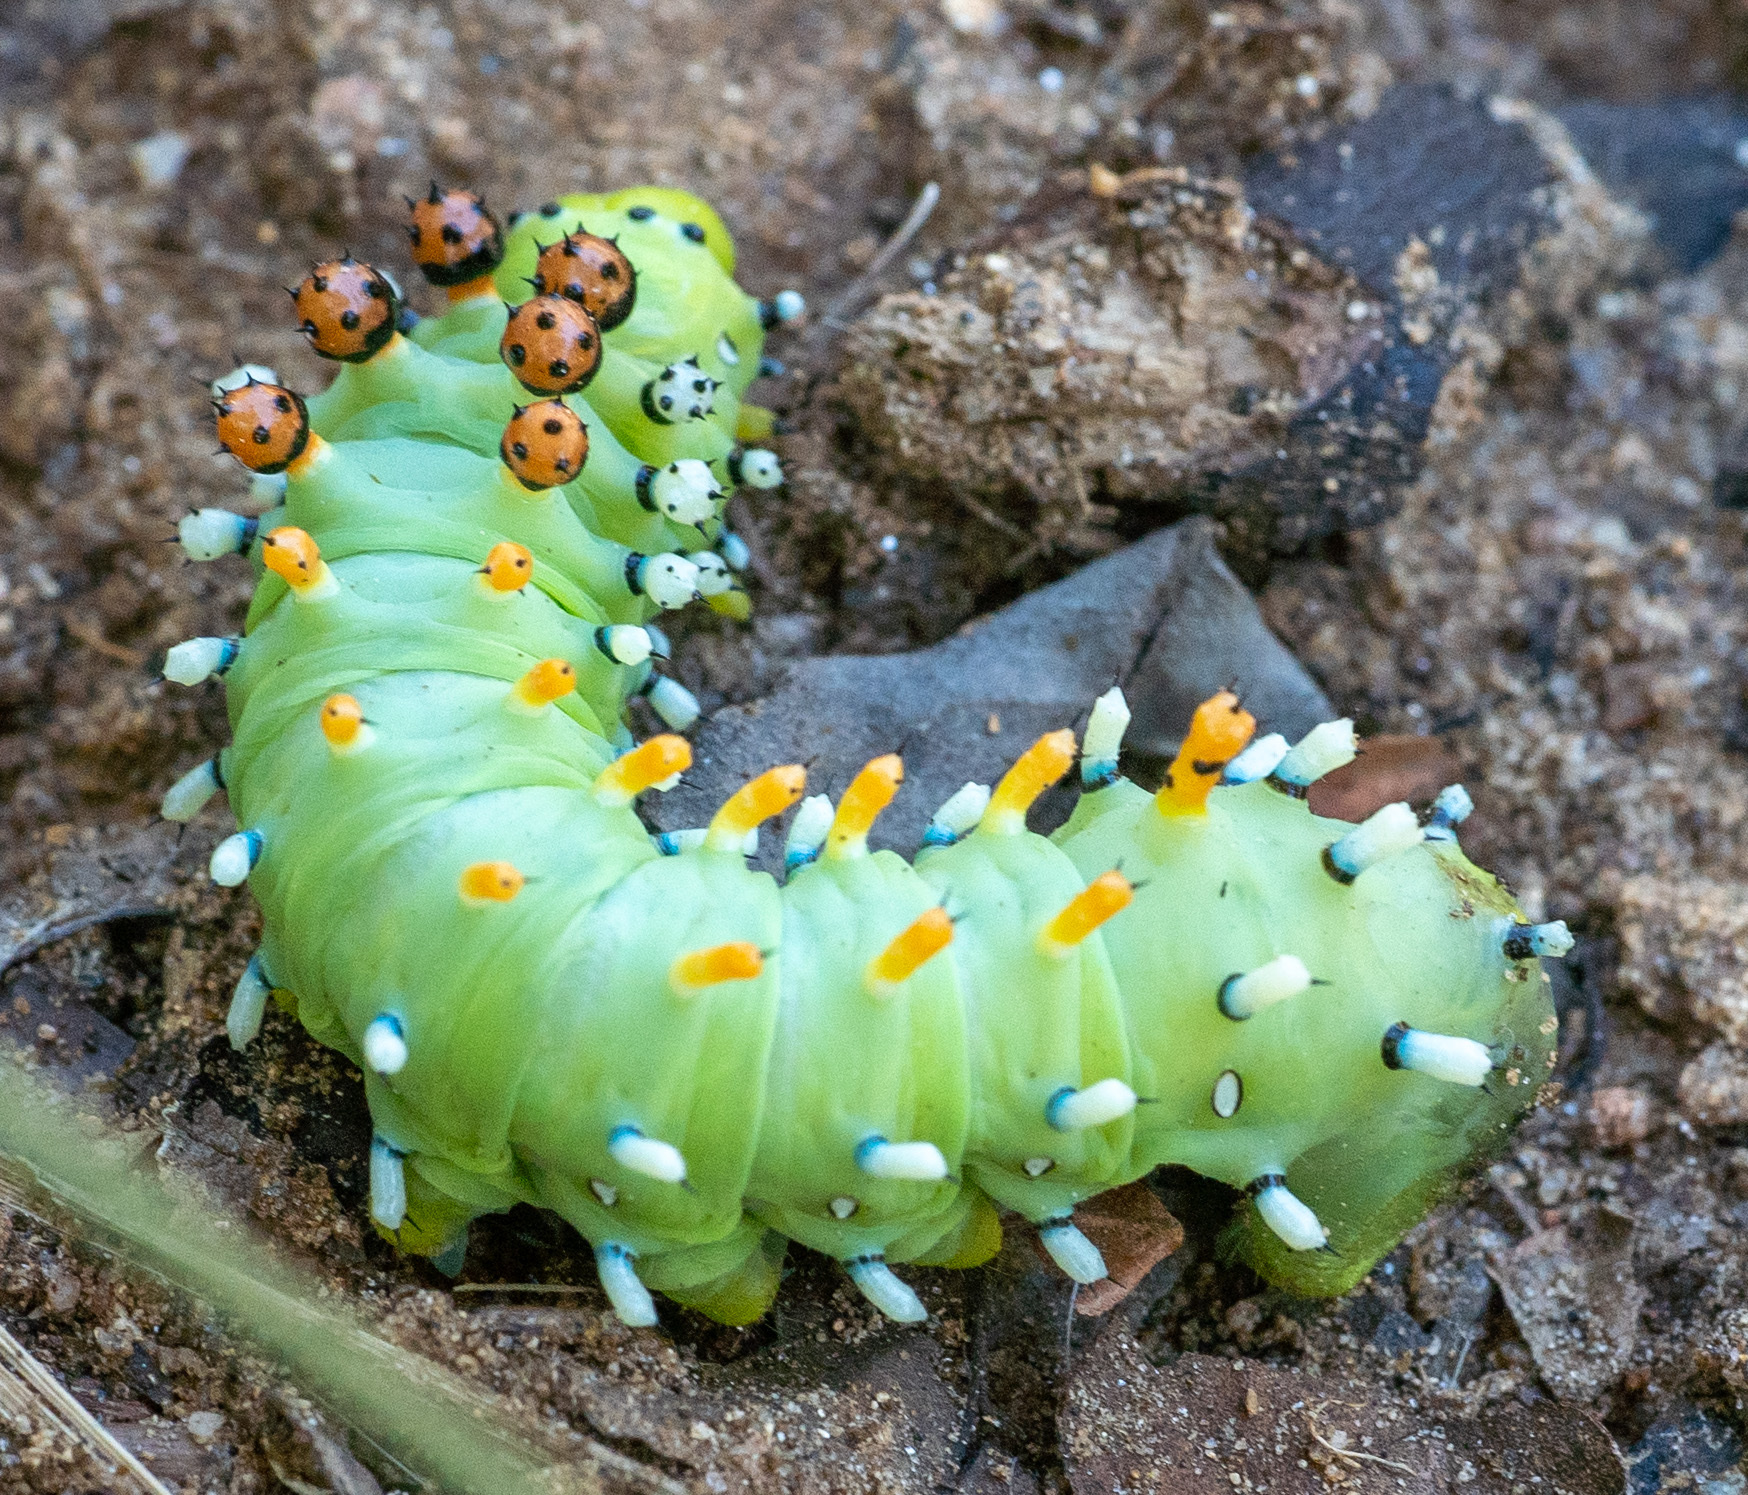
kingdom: Animalia
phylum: Arthropoda
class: Insecta
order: Lepidoptera
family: Saturniidae
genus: Hyalophora
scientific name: Hyalophora gloveri
